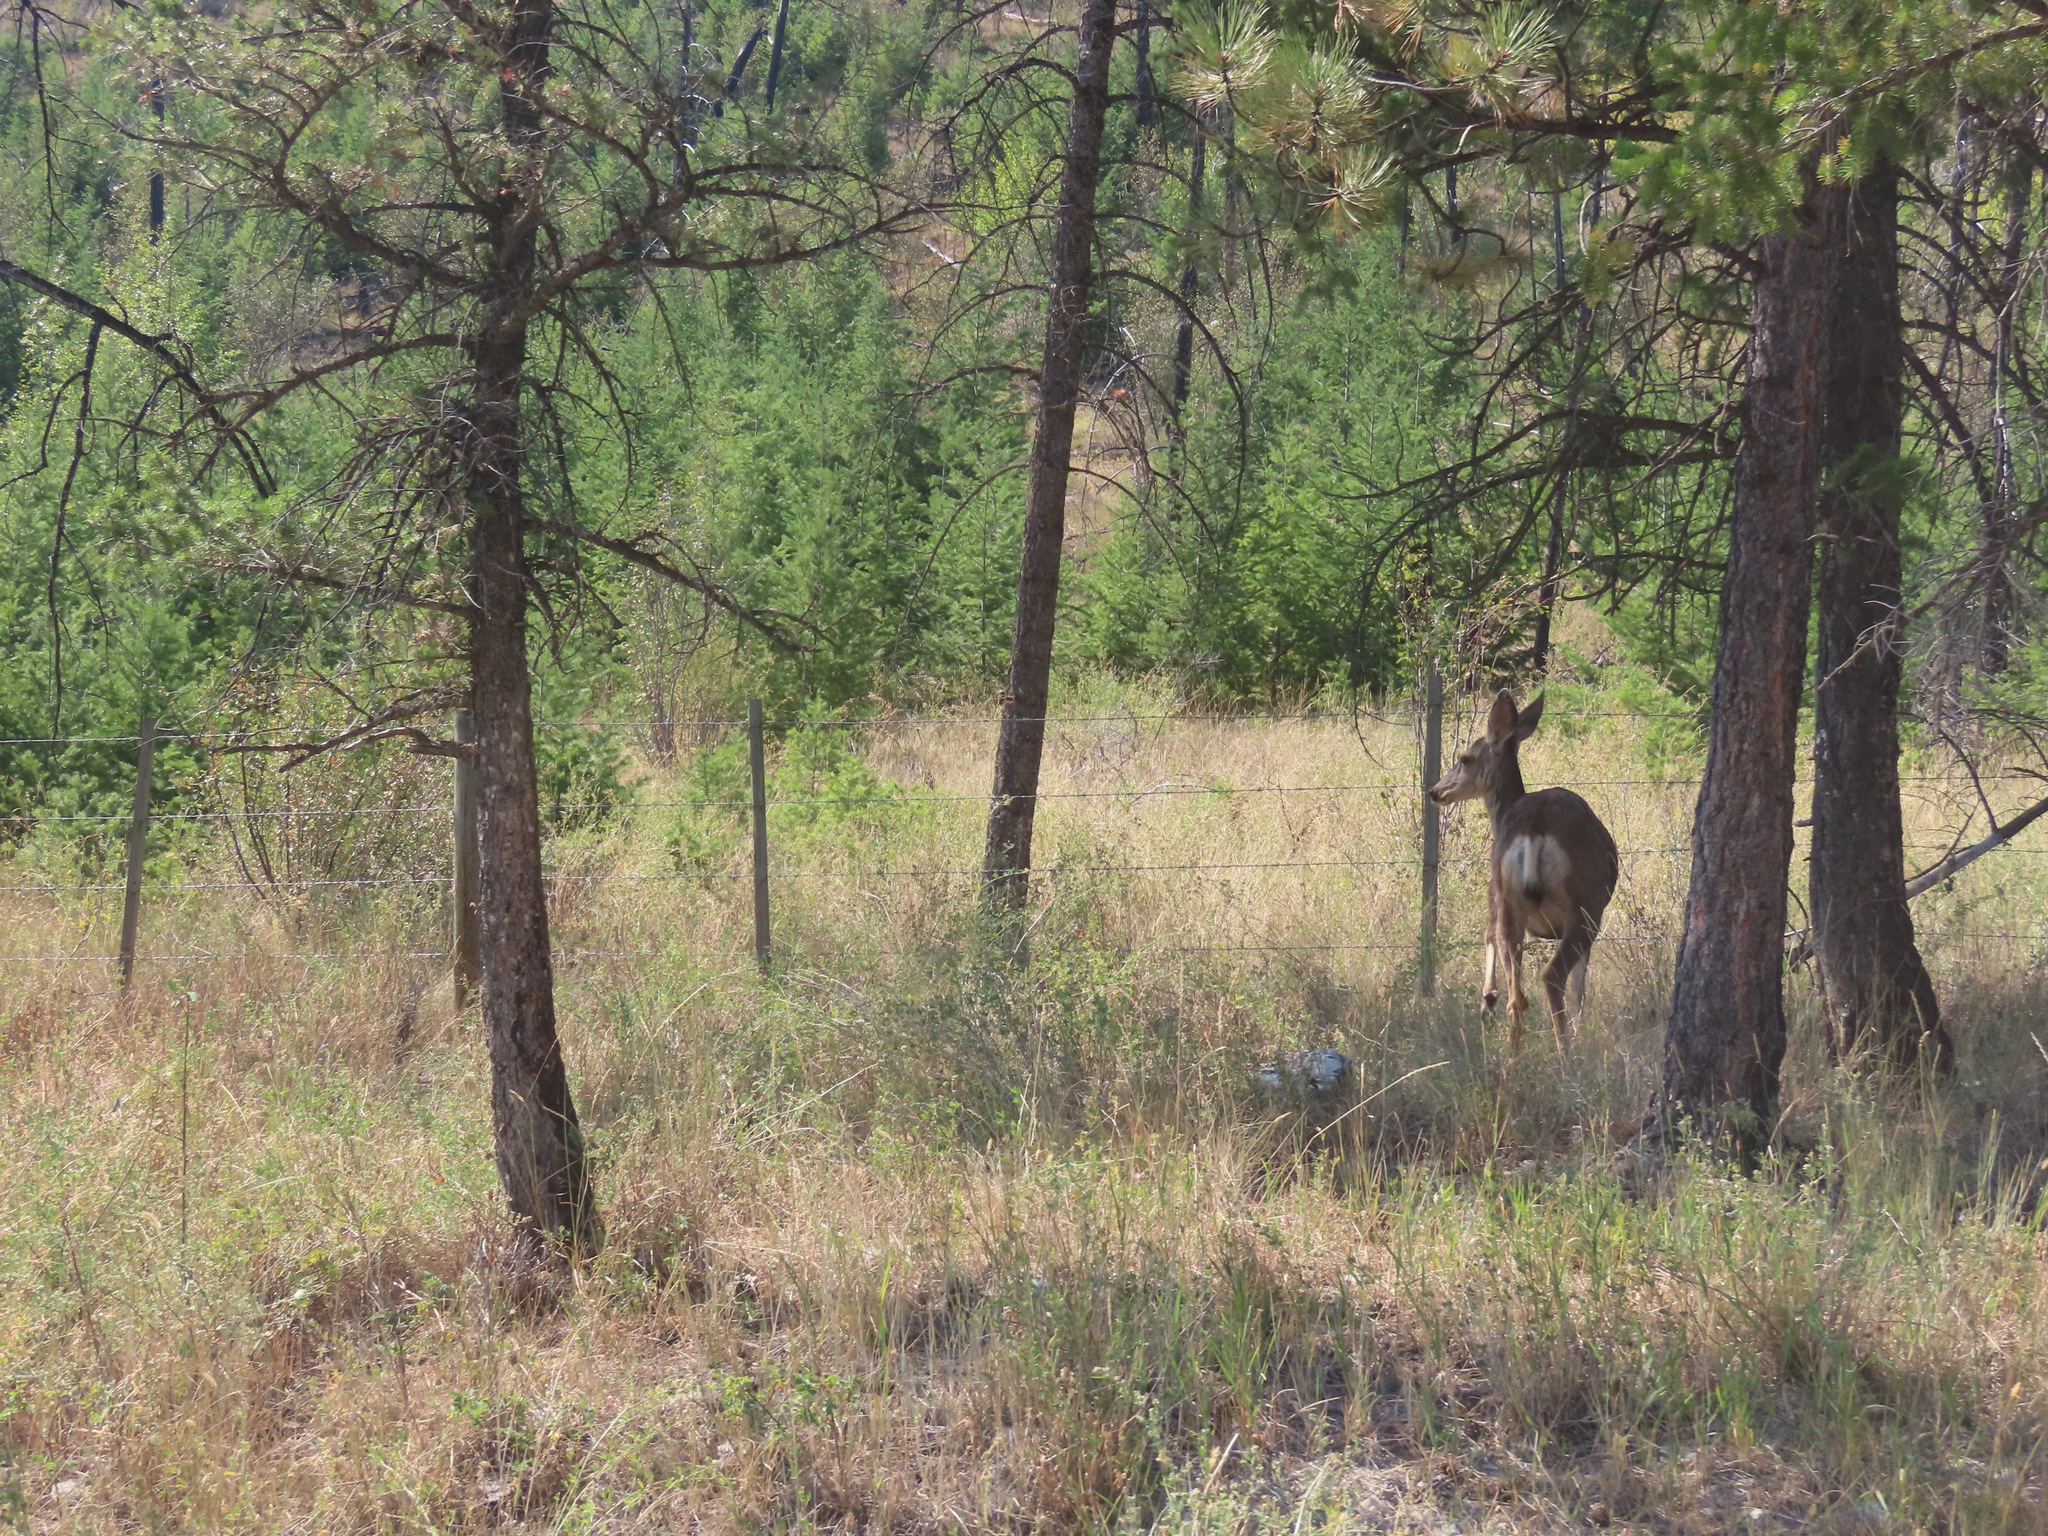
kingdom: Animalia
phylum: Chordata
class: Mammalia
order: Artiodactyla
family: Cervidae
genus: Odocoileus
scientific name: Odocoileus hemionus
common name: Mule deer
